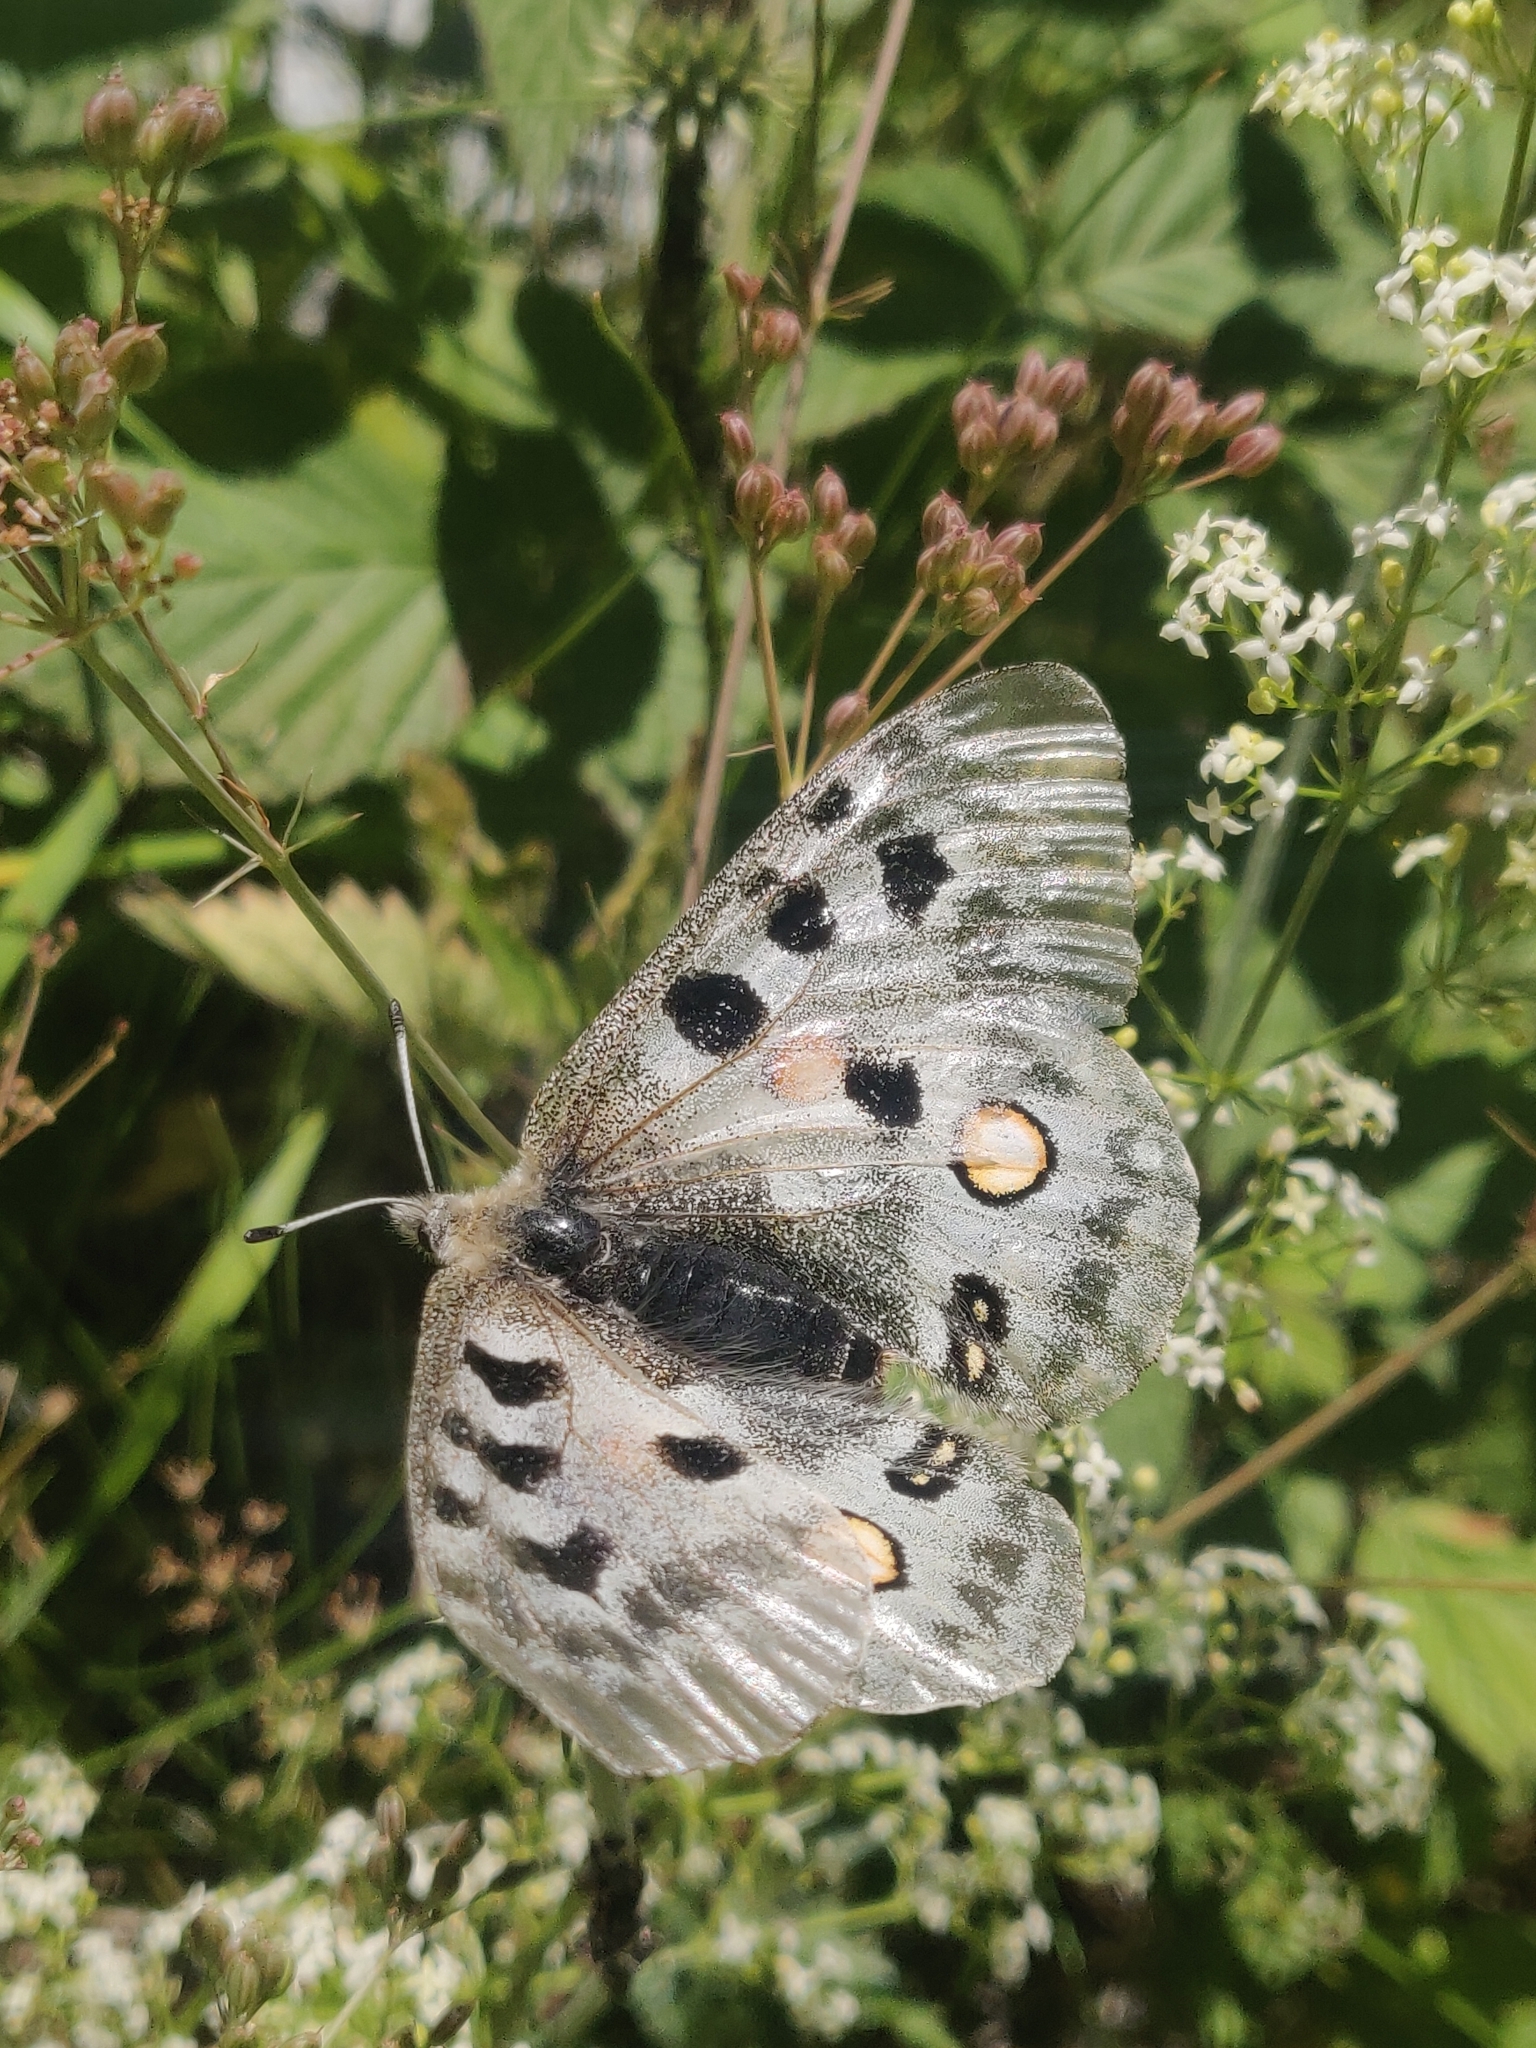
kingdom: Animalia
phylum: Arthropoda
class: Insecta
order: Lepidoptera
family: Papilionidae
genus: Parnassius
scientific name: Parnassius apollo
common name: Apollo
